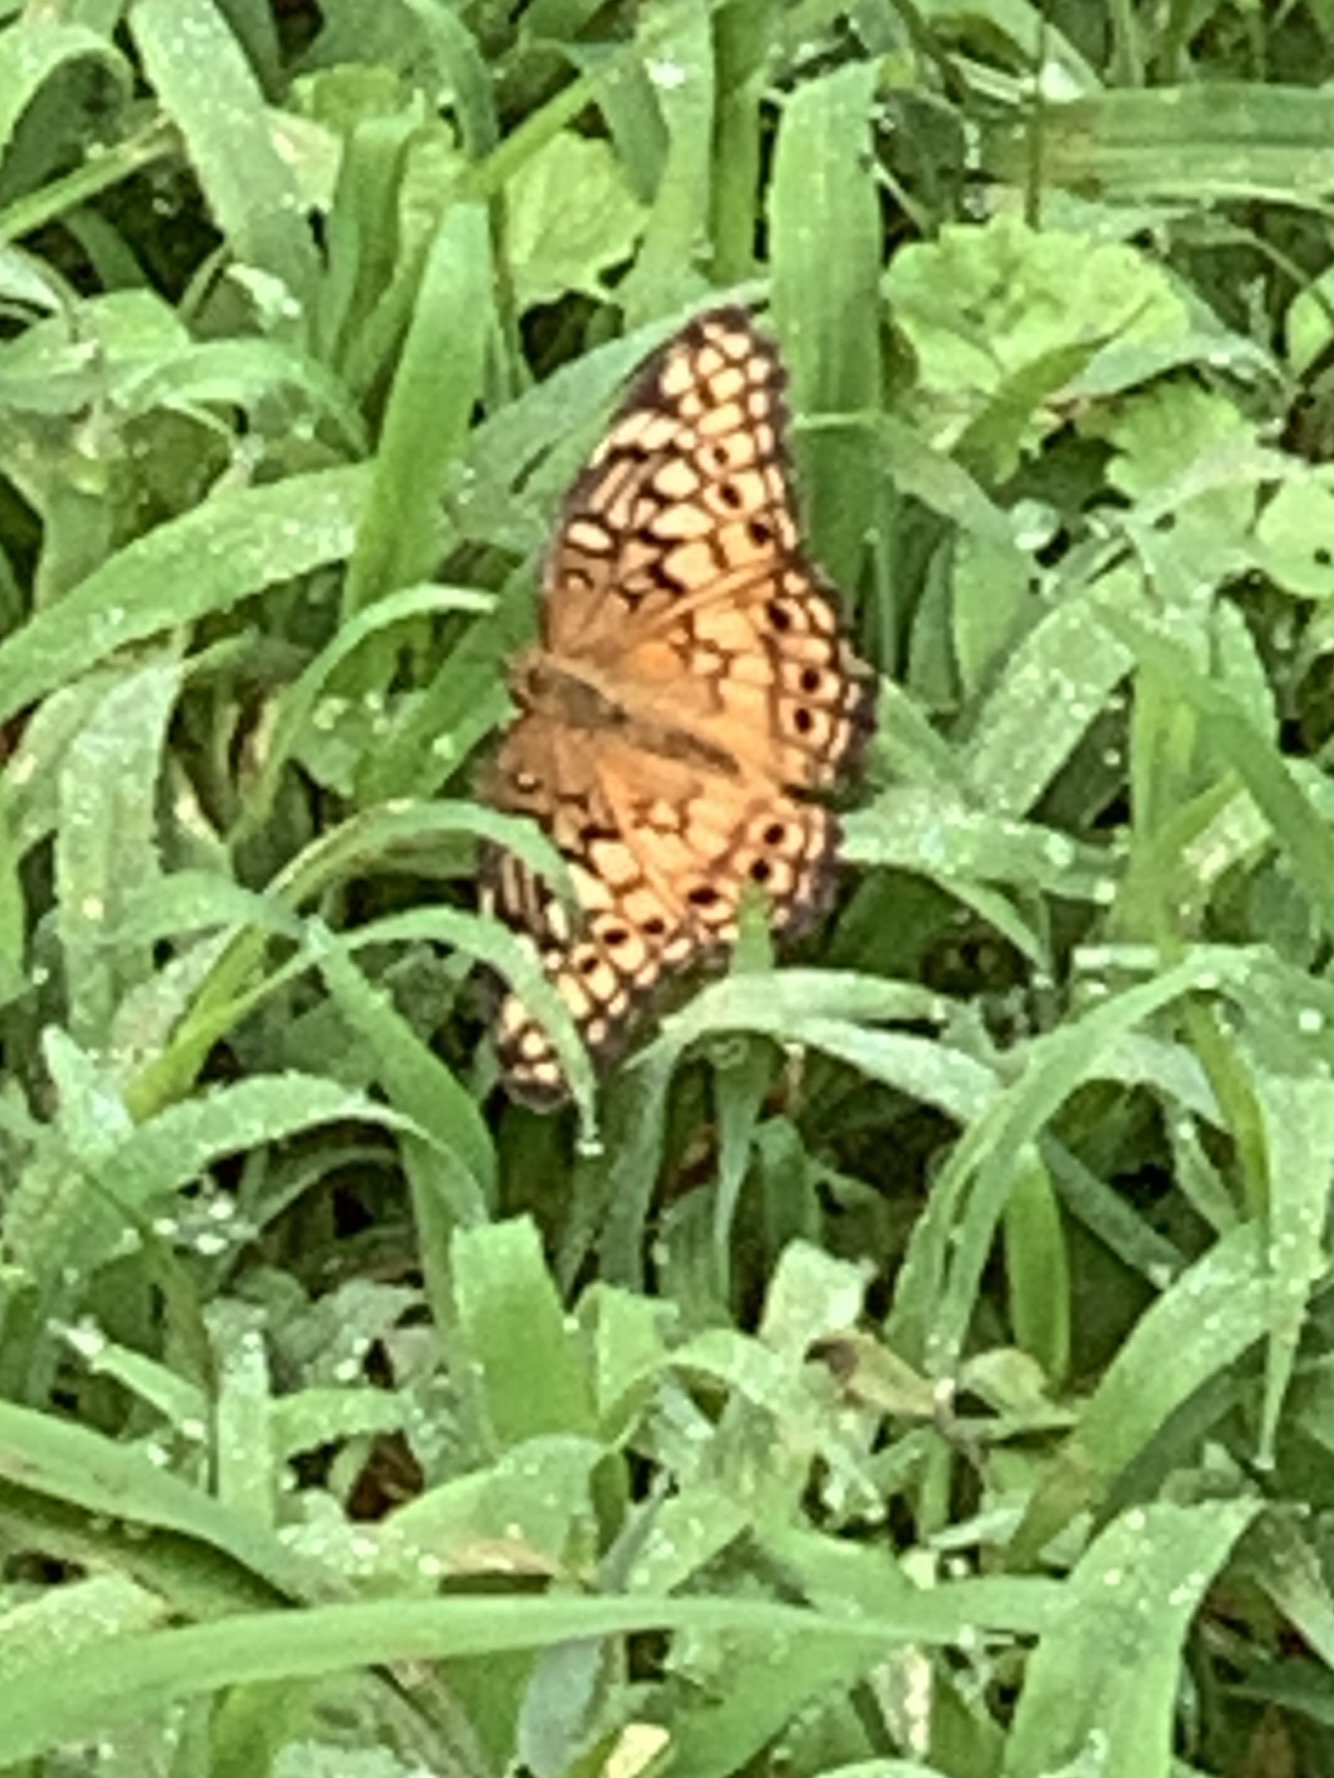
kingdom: Animalia
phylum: Arthropoda
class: Insecta
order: Lepidoptera
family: Nymphalidae
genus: Euptoieta
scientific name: Euptoieta claudia
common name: Variegated fritillary
